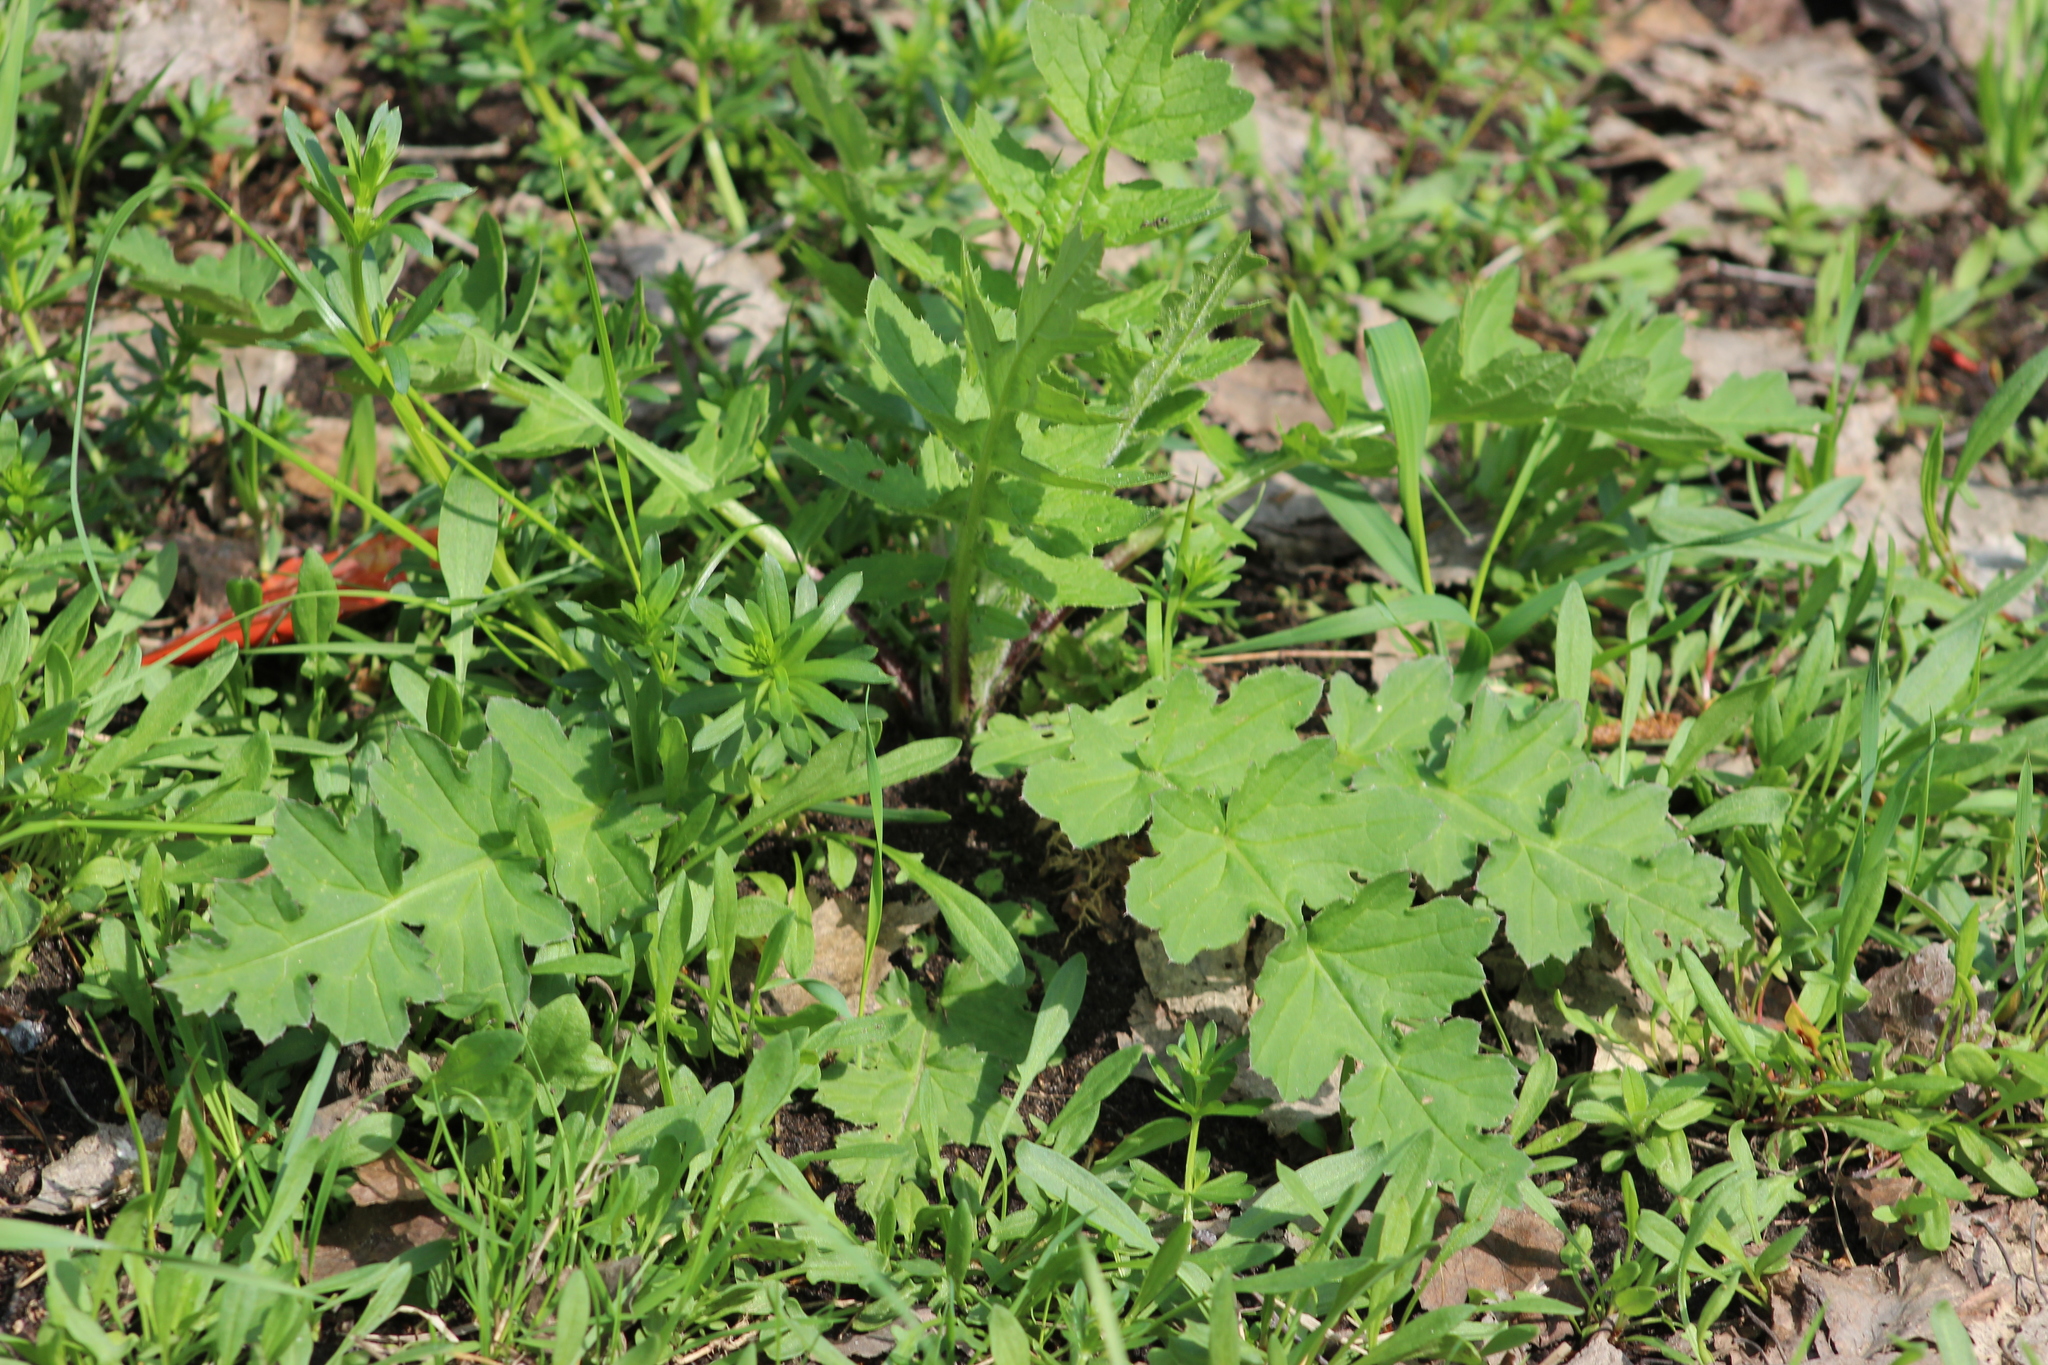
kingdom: Plantae
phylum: Tracheophyta
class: Magnoliopsida
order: Asterales
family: Asteraceae
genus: Carduus
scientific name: Carduus crispus
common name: Welted thistle
